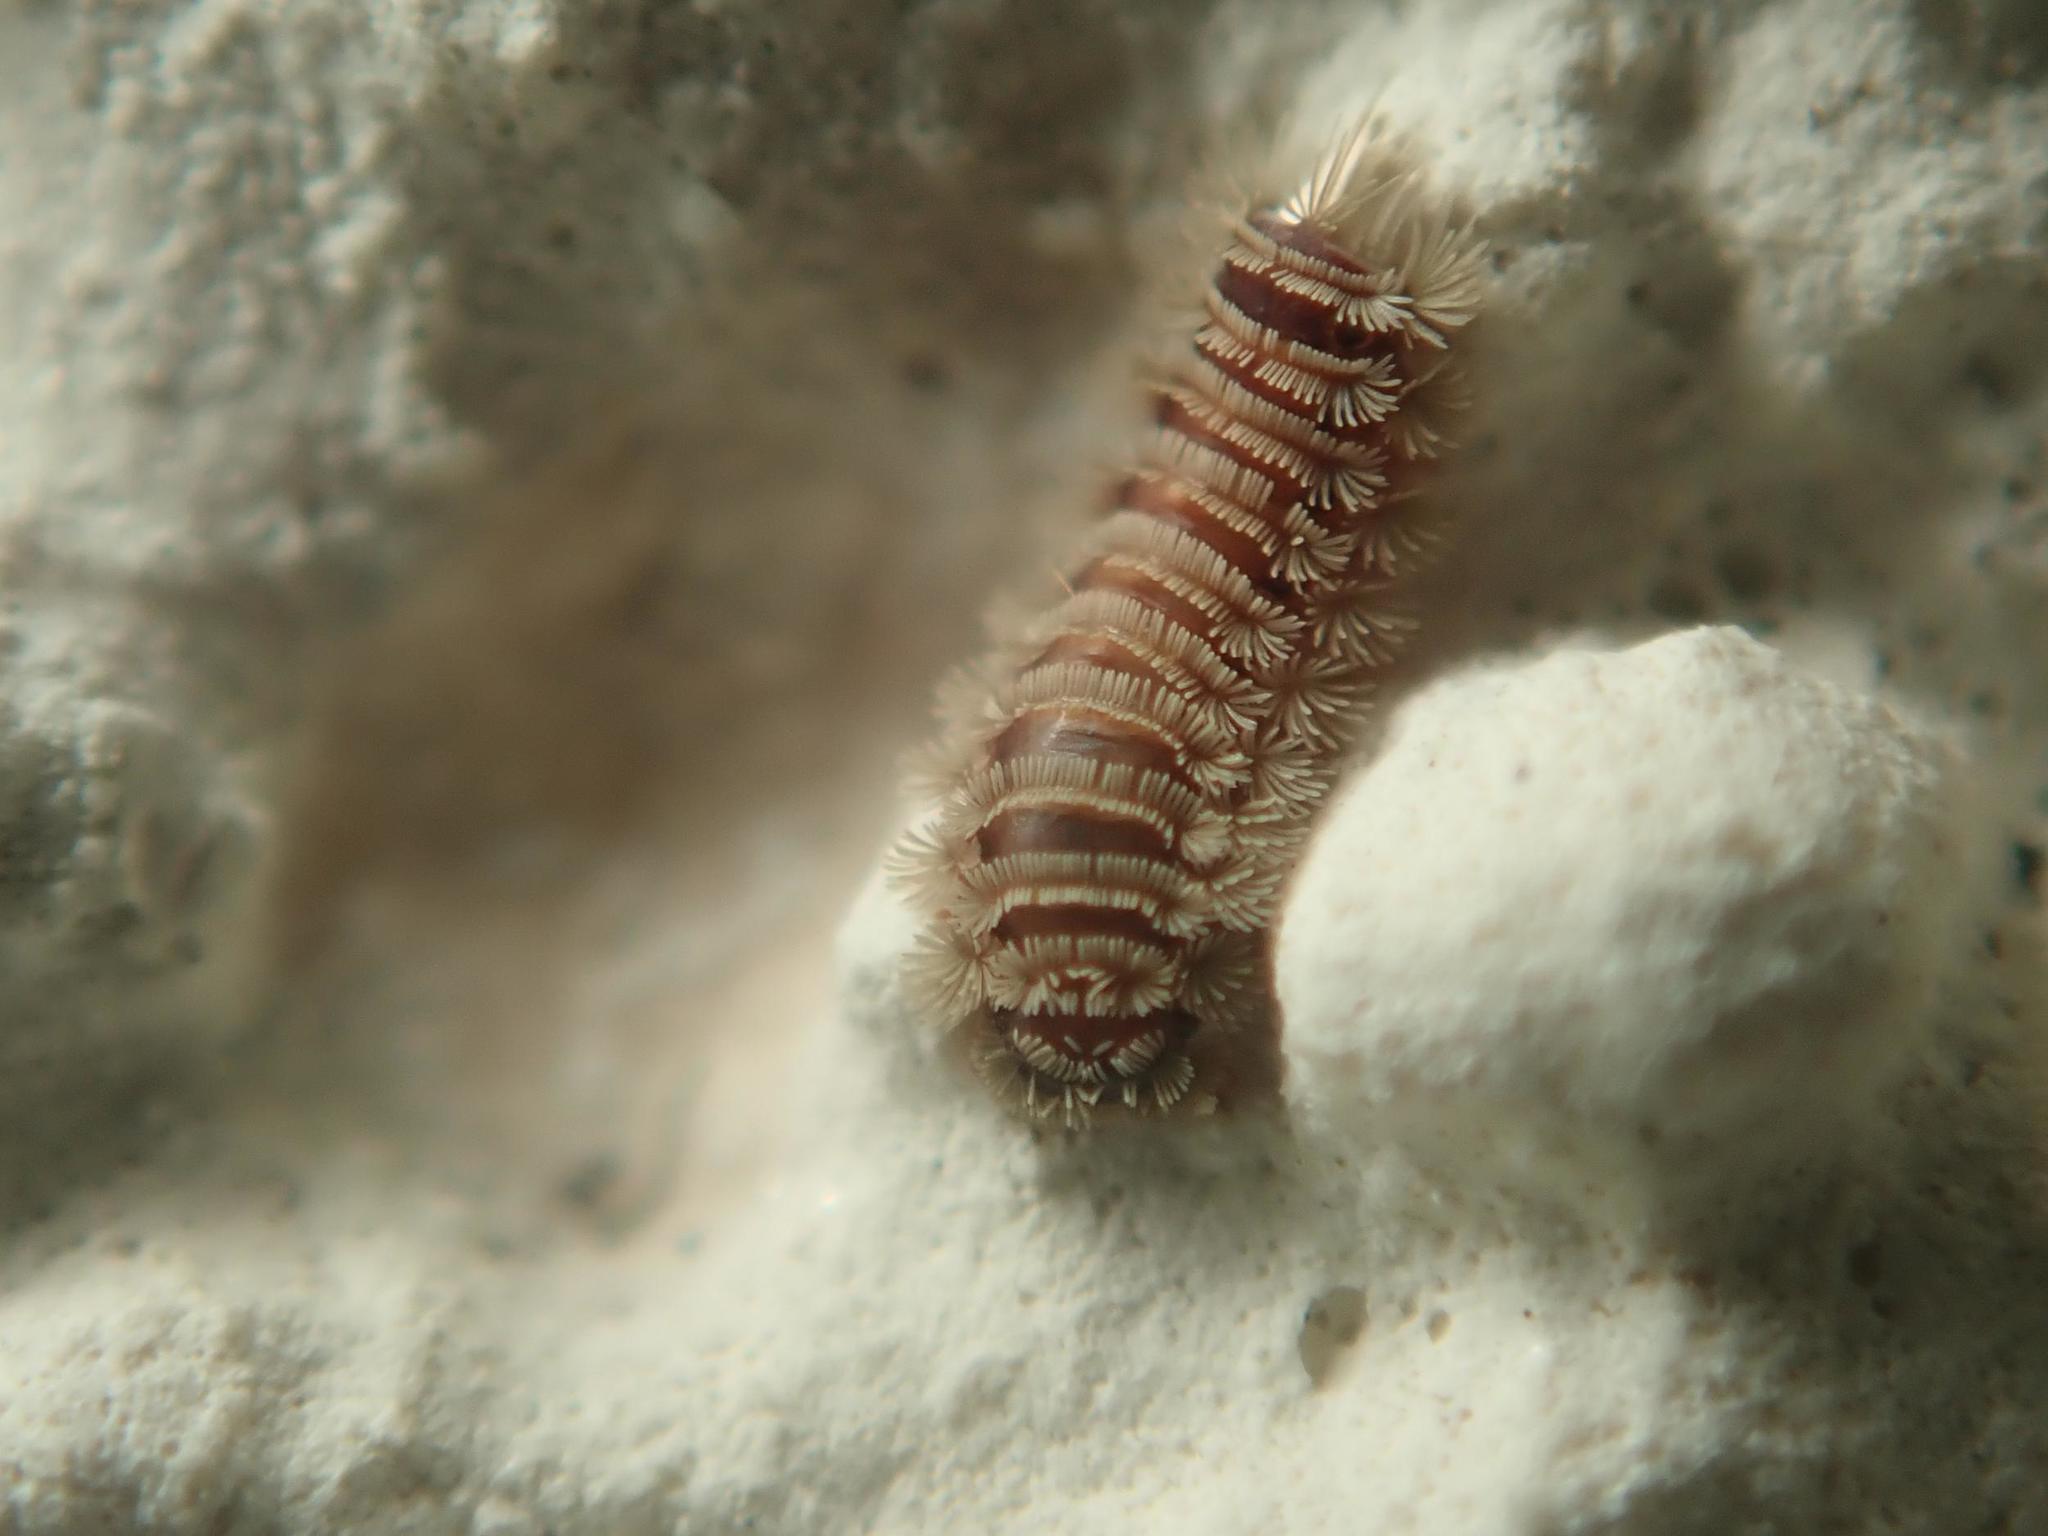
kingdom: Animalia
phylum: Arthropoda
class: Diplopoda
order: Polyxenida
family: Polyxenidae
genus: Polyxenus
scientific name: Polyxenus lagurus
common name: Bristly millipede
